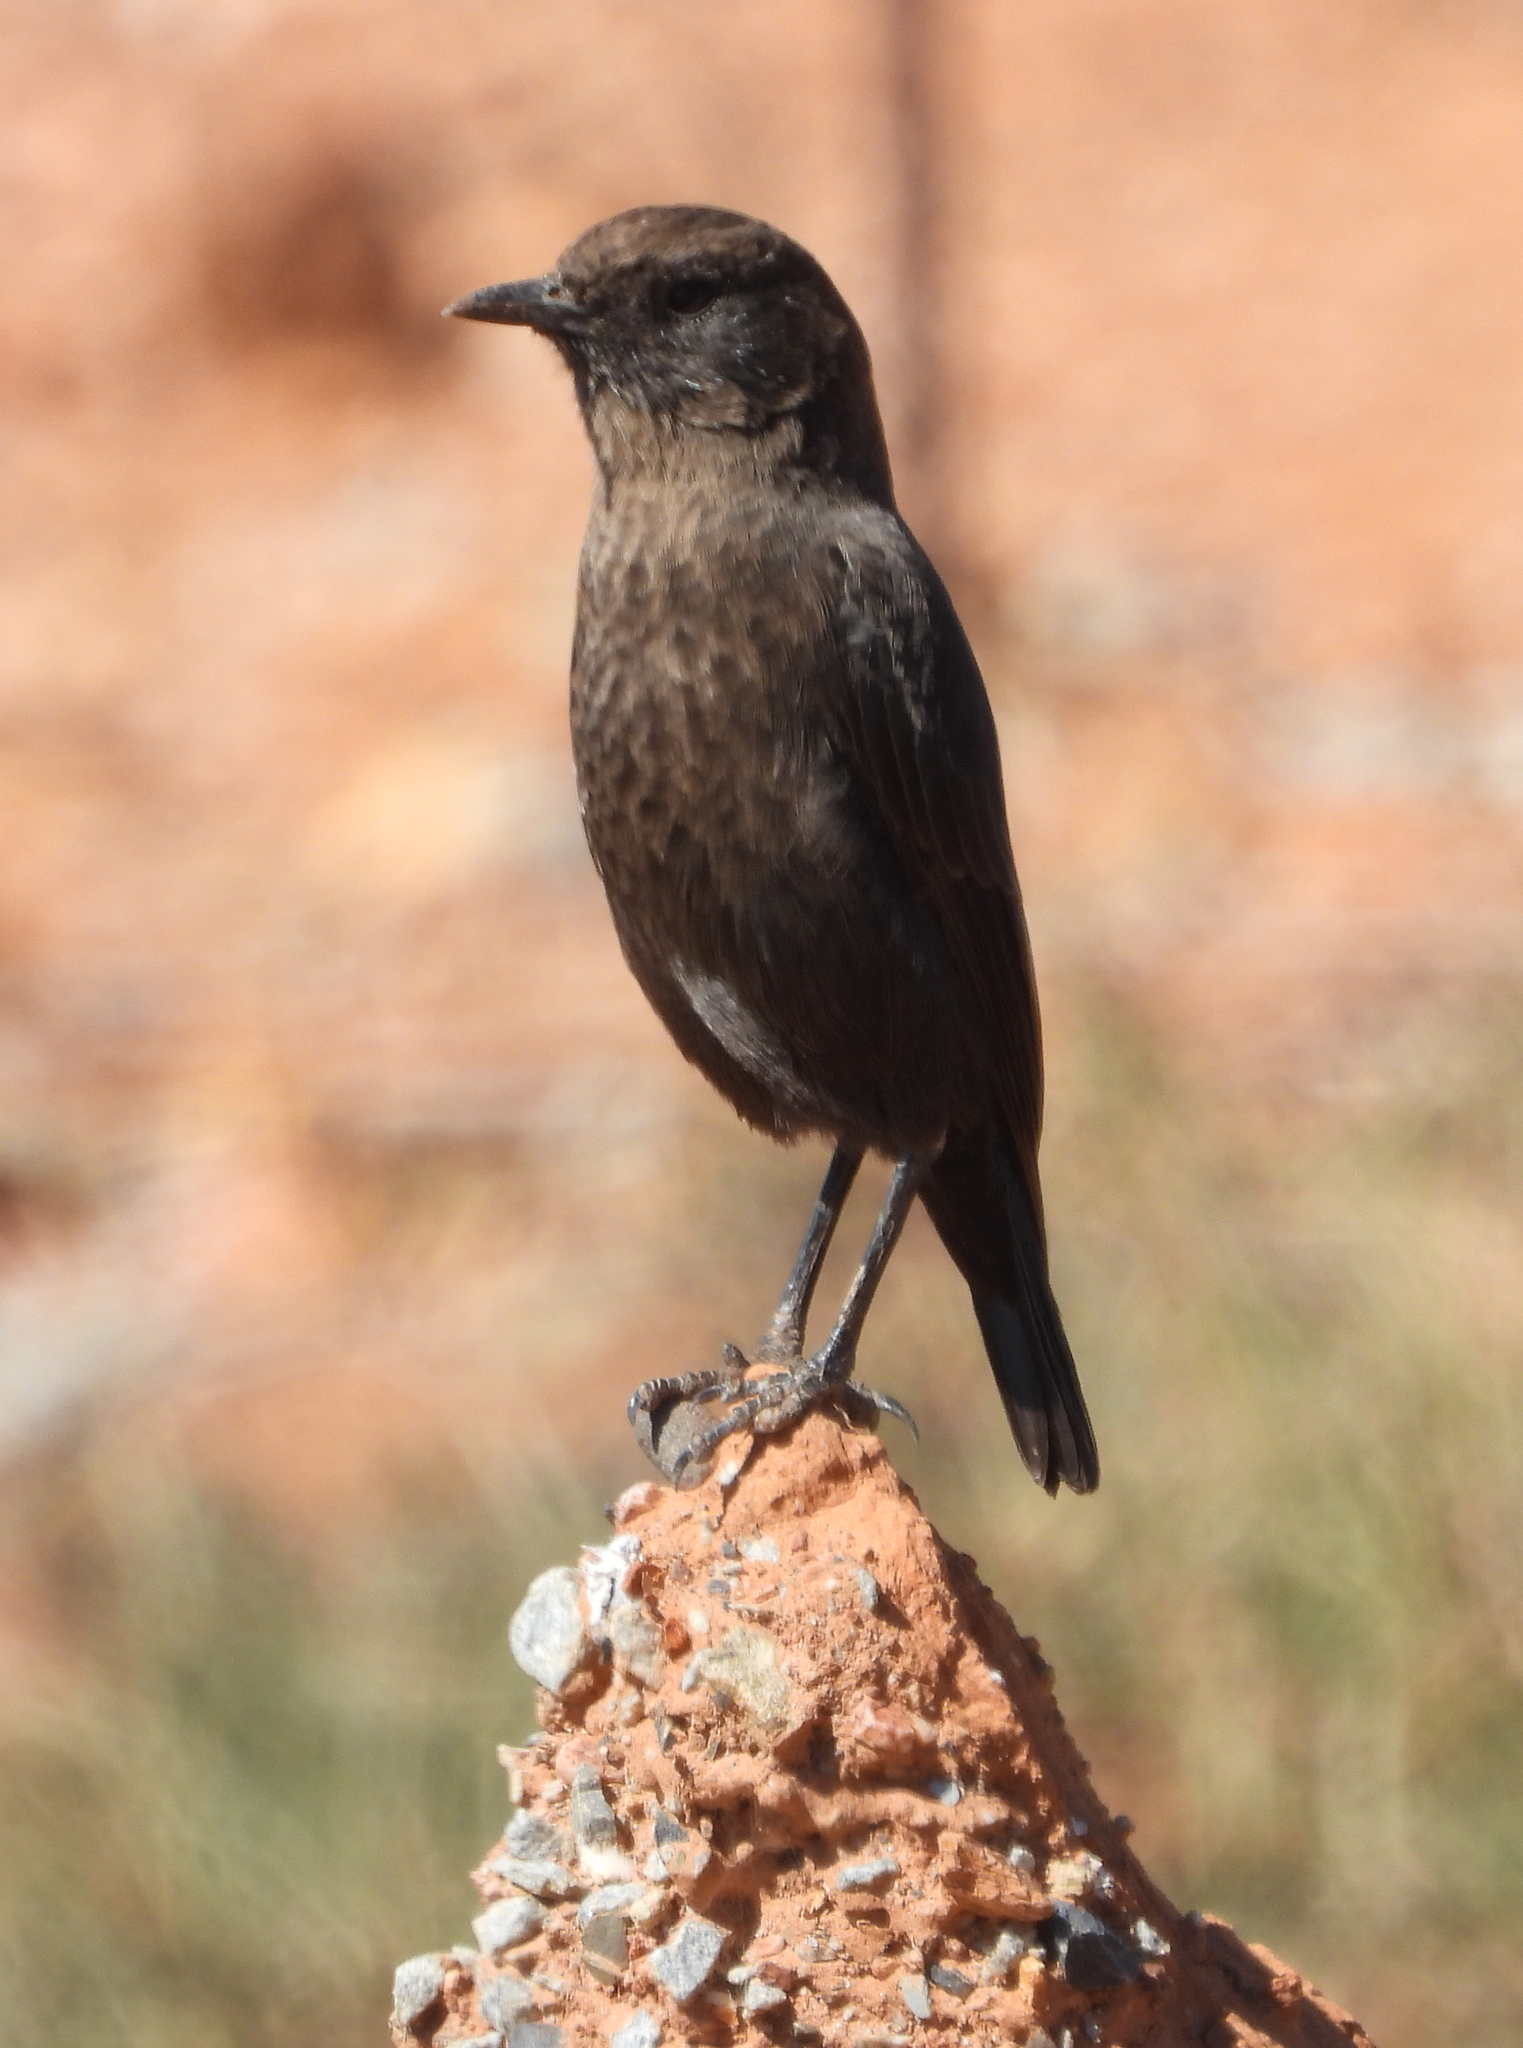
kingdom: Animalia
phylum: Chordata
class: Aves
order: Passeriformes
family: Muscicapidae
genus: Myrmecocichla
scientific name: Myrmecocichla formicivora
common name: Ant-eating chat
